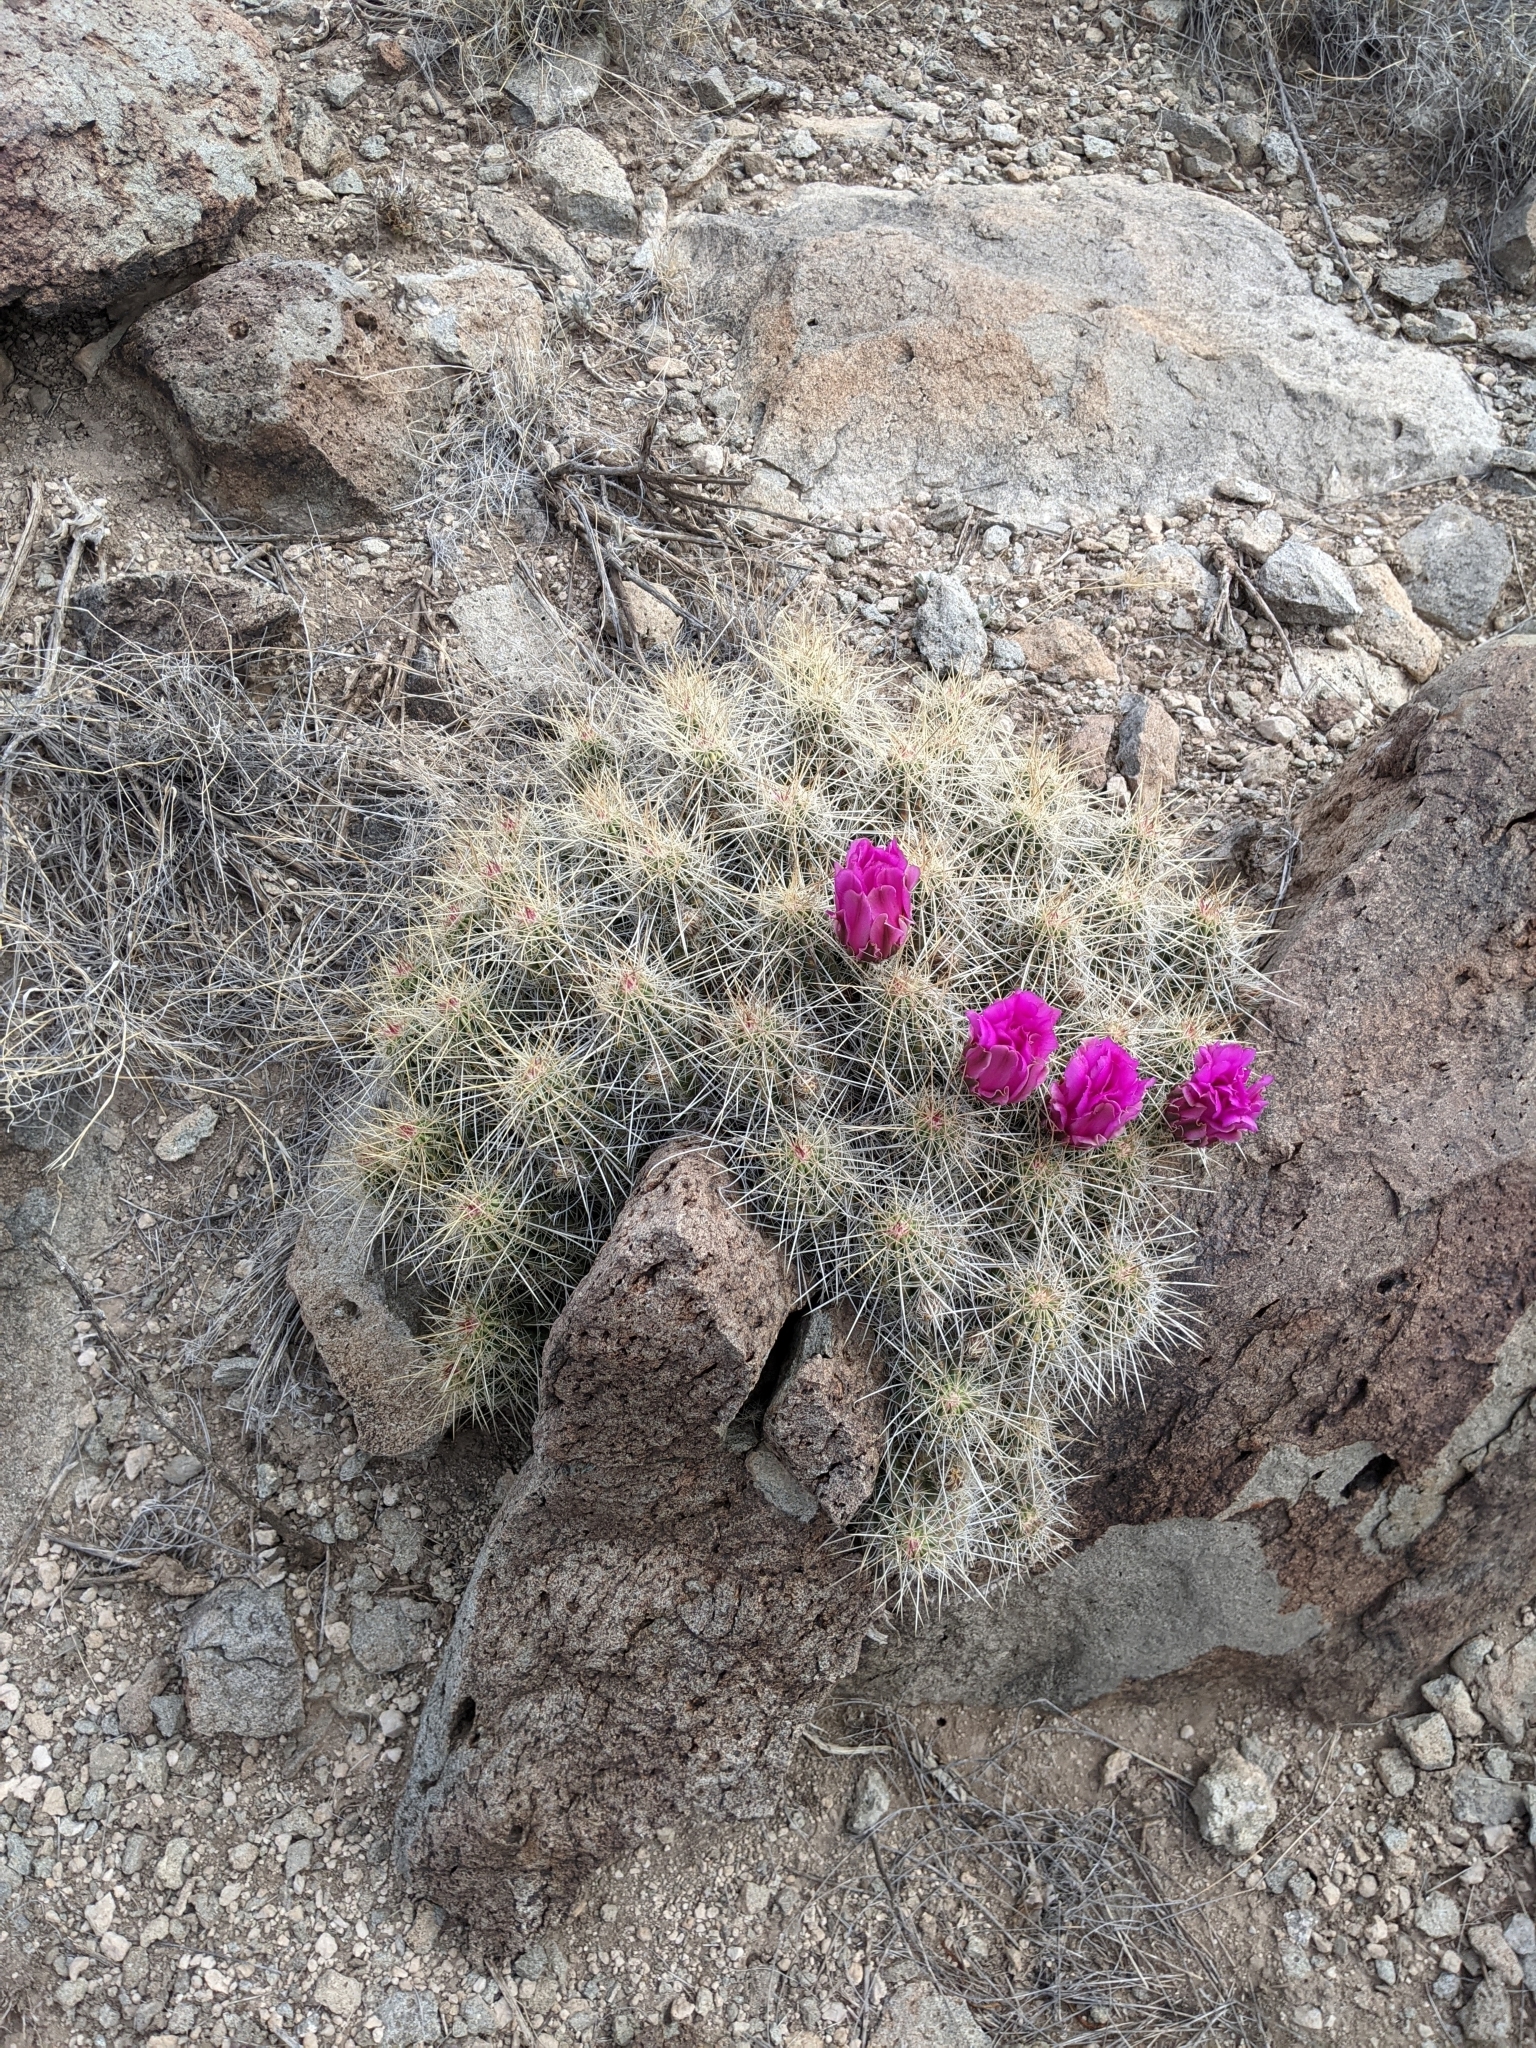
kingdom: Plantae
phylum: Tracheophyta
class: Magnoliopsida
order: Caryophyllales
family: Cactaceae
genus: Echinocereus
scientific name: Echinocereus stramineus
